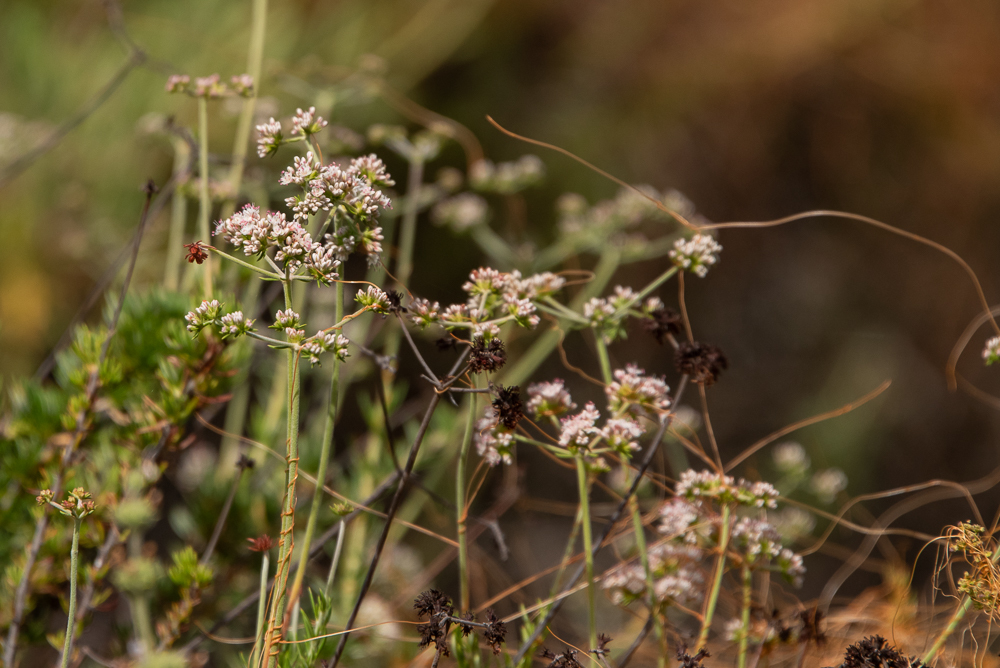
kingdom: Plantae
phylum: Tracheophyta
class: Magnoliopsida
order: Caryophyllales
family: Polygonaceae
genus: Eriogonum
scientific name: Eriogonum fasciculatum
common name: California wild buckwheat
